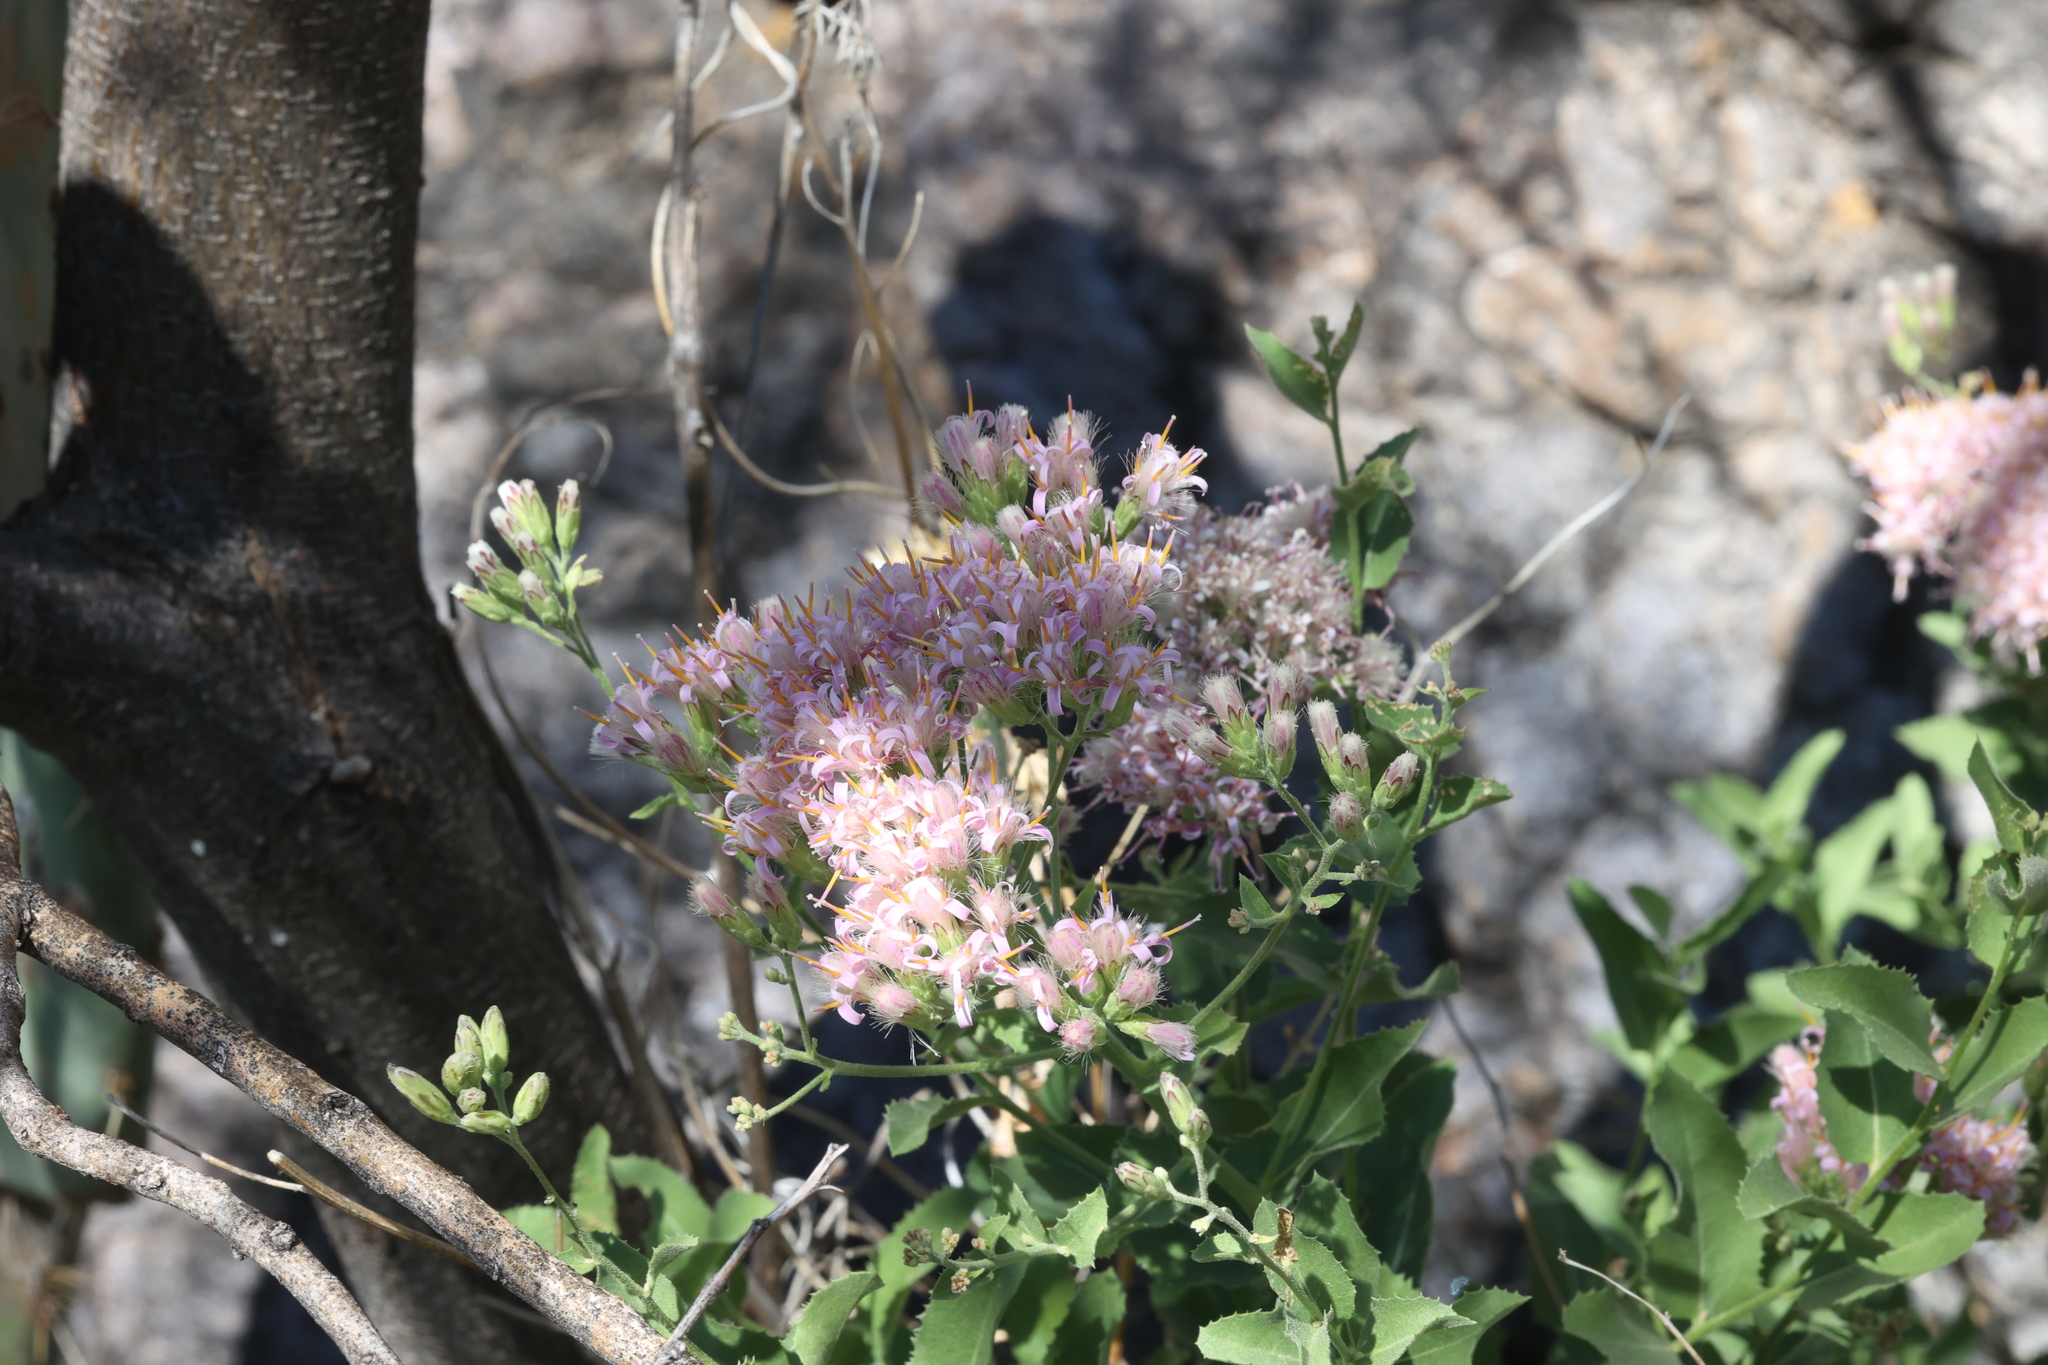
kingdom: Plantae
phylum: Tracheophyta
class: Magnoliopsida
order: Asterales
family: Asteraceae
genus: Acourtia
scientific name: Acourtia wrightii
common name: Brownfoot
